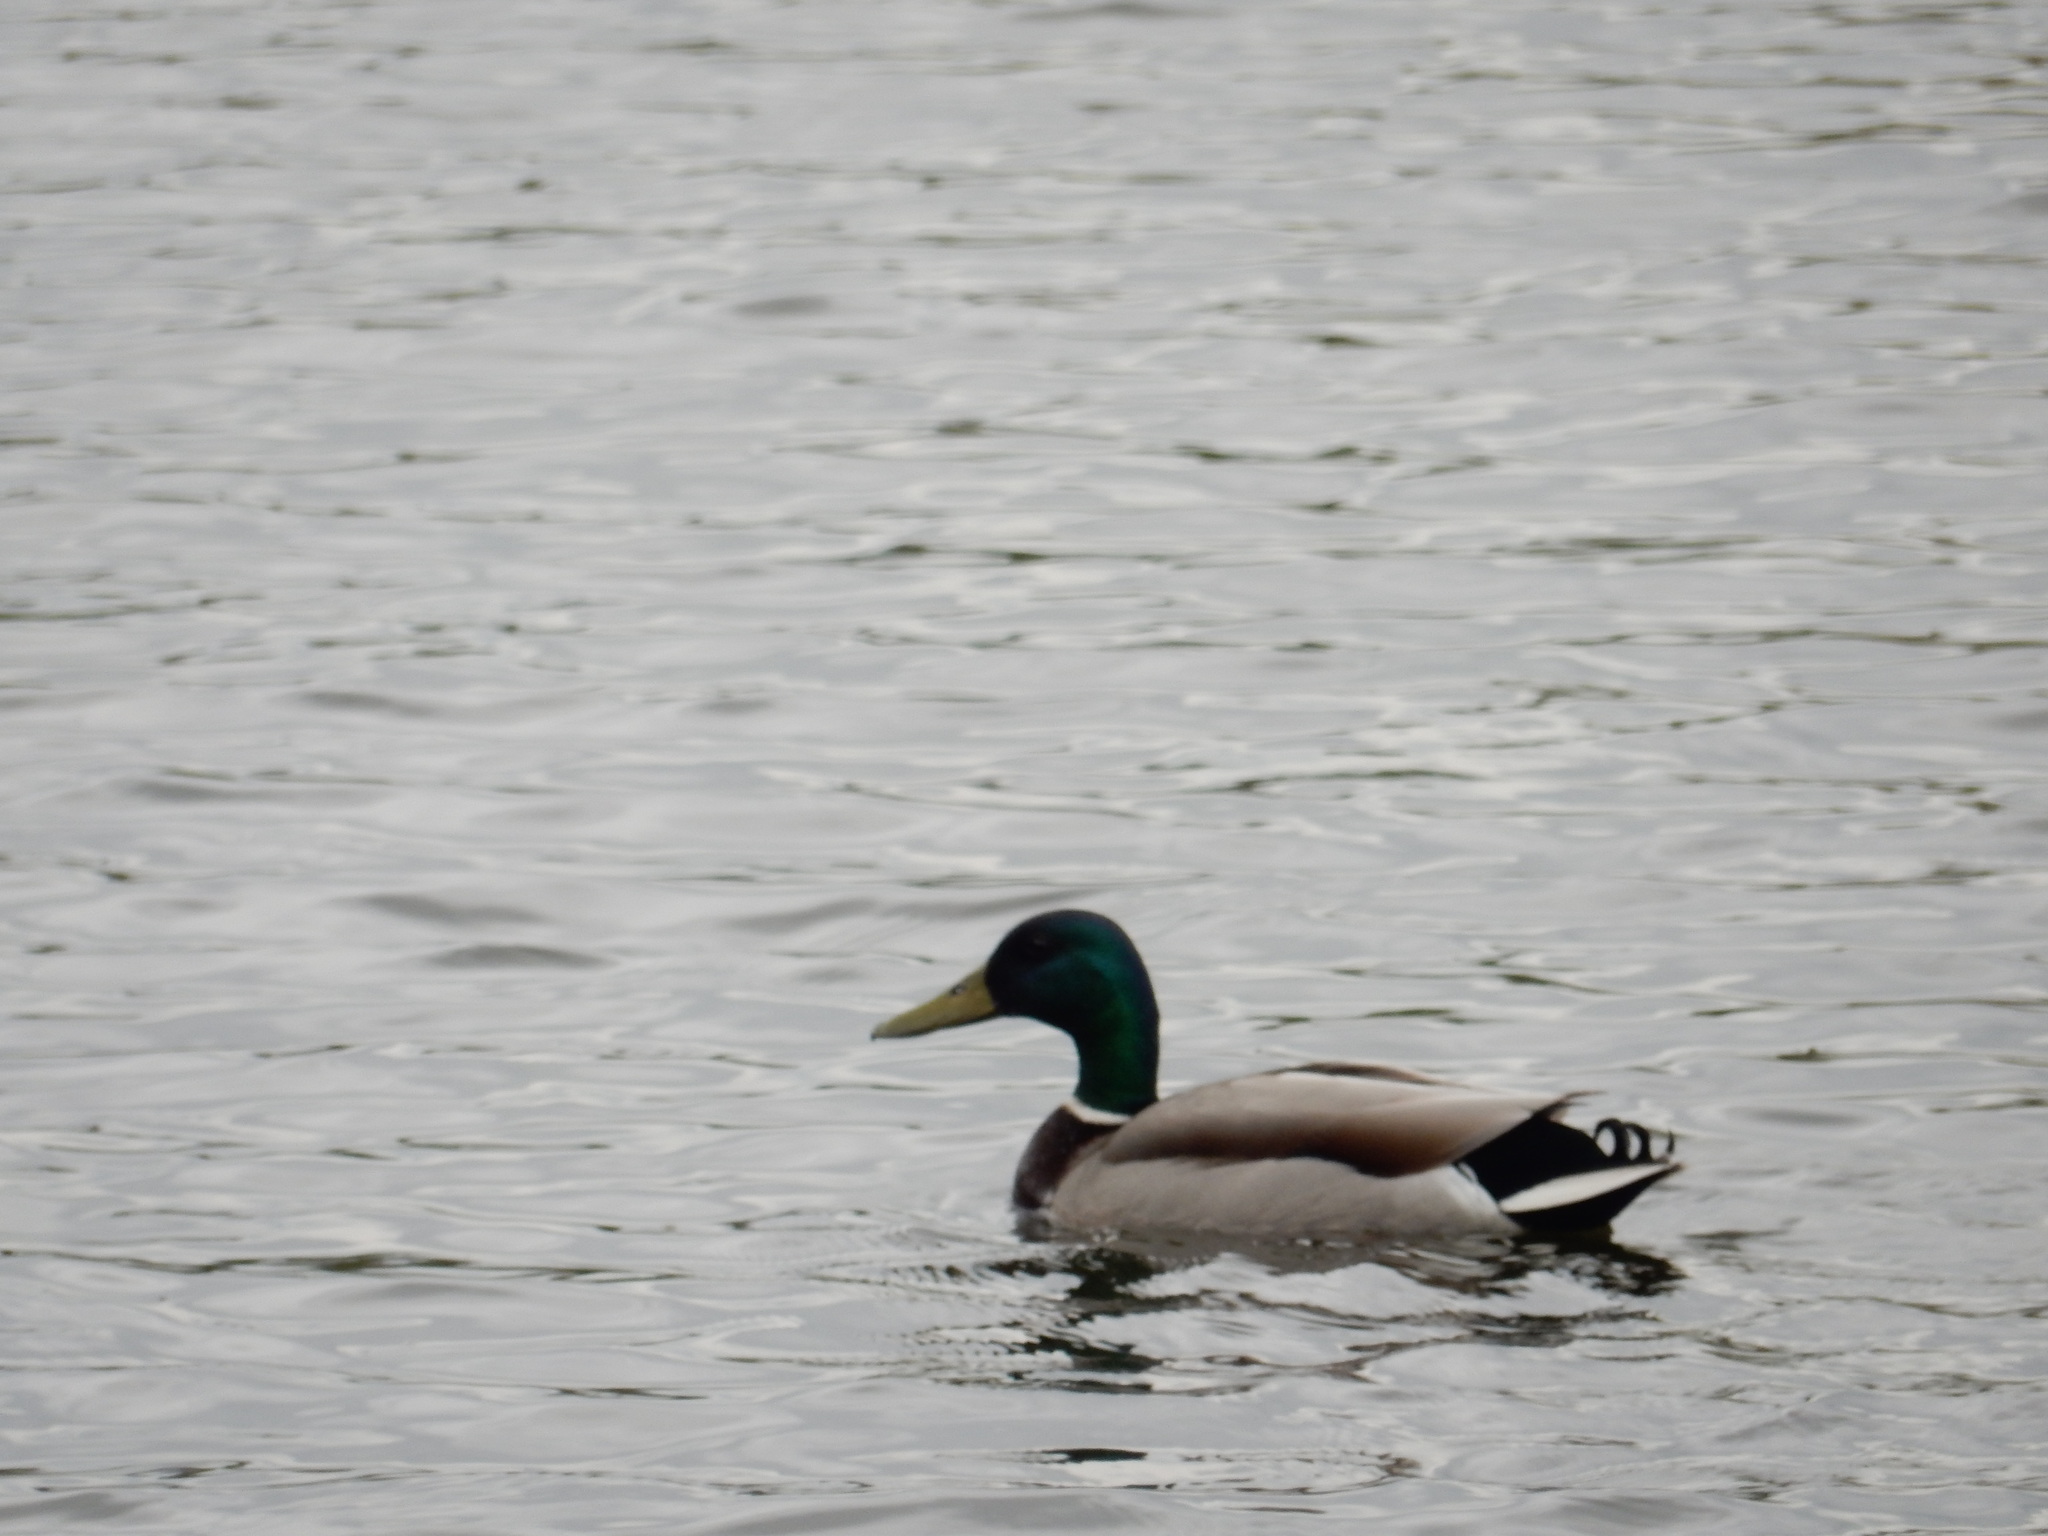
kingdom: Animalia
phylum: Chordata
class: Aves
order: Anseriformes
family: Anatidae
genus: Anas
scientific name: Anas platyrhynchos
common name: Mallard
